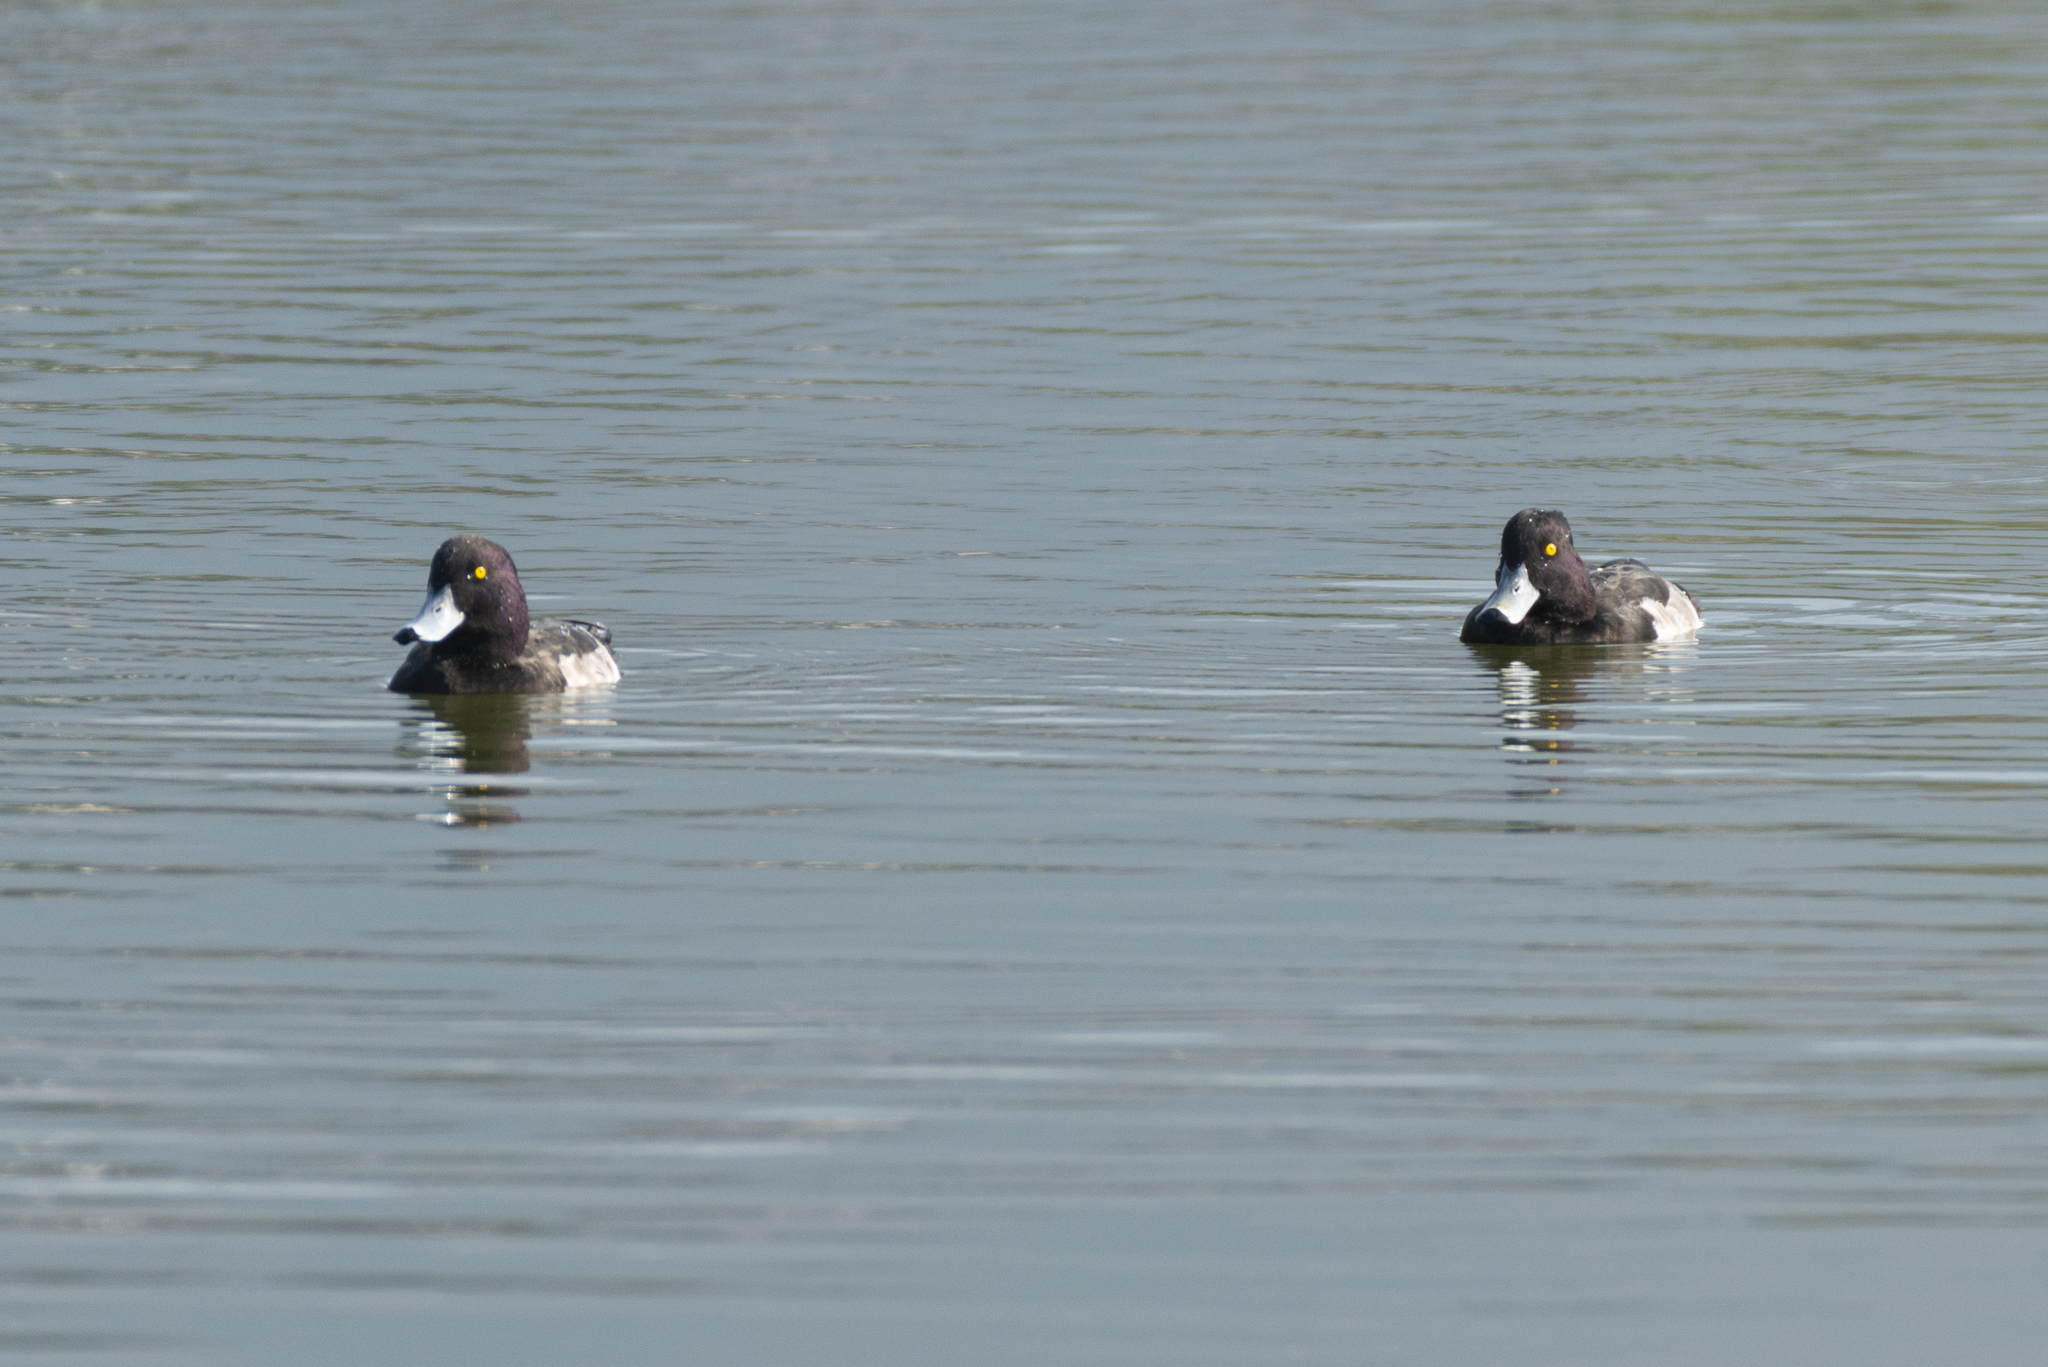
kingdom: Animalia
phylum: Chordata
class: Aves
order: Anseriformes
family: Anatidae
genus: Aythya
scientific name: Aythya fuligula
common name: Tufted duck
